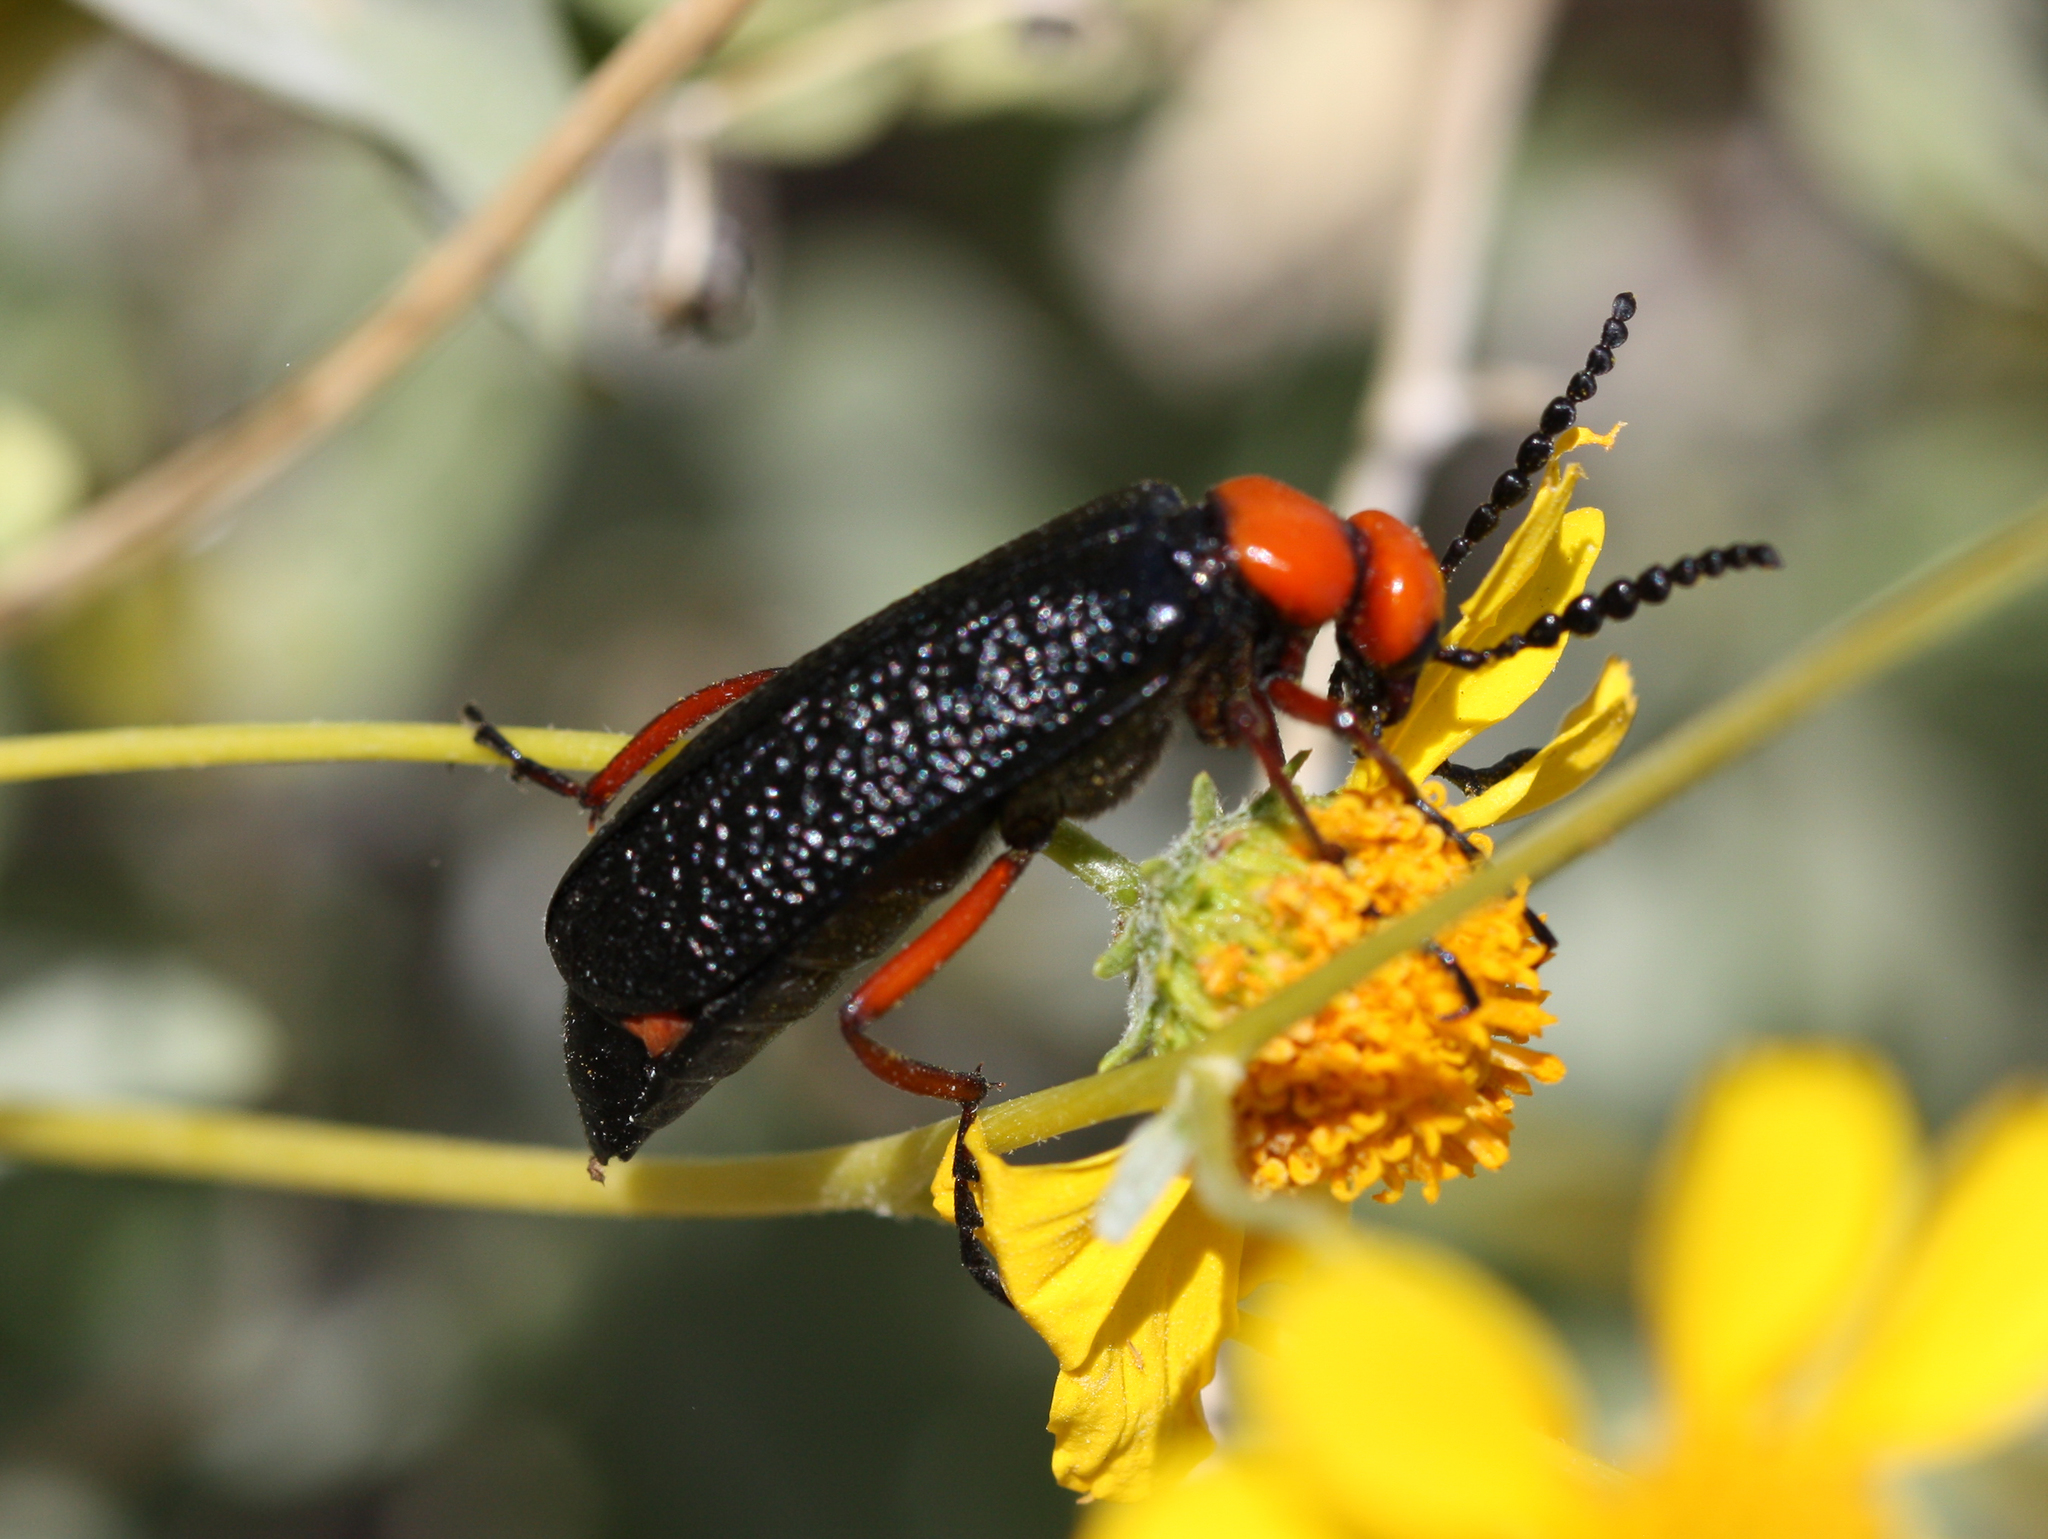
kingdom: Animalia
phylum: Arthropoda
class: Insecta
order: Coleoptera
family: Meloidae
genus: Lytta
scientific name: Lytta magister
